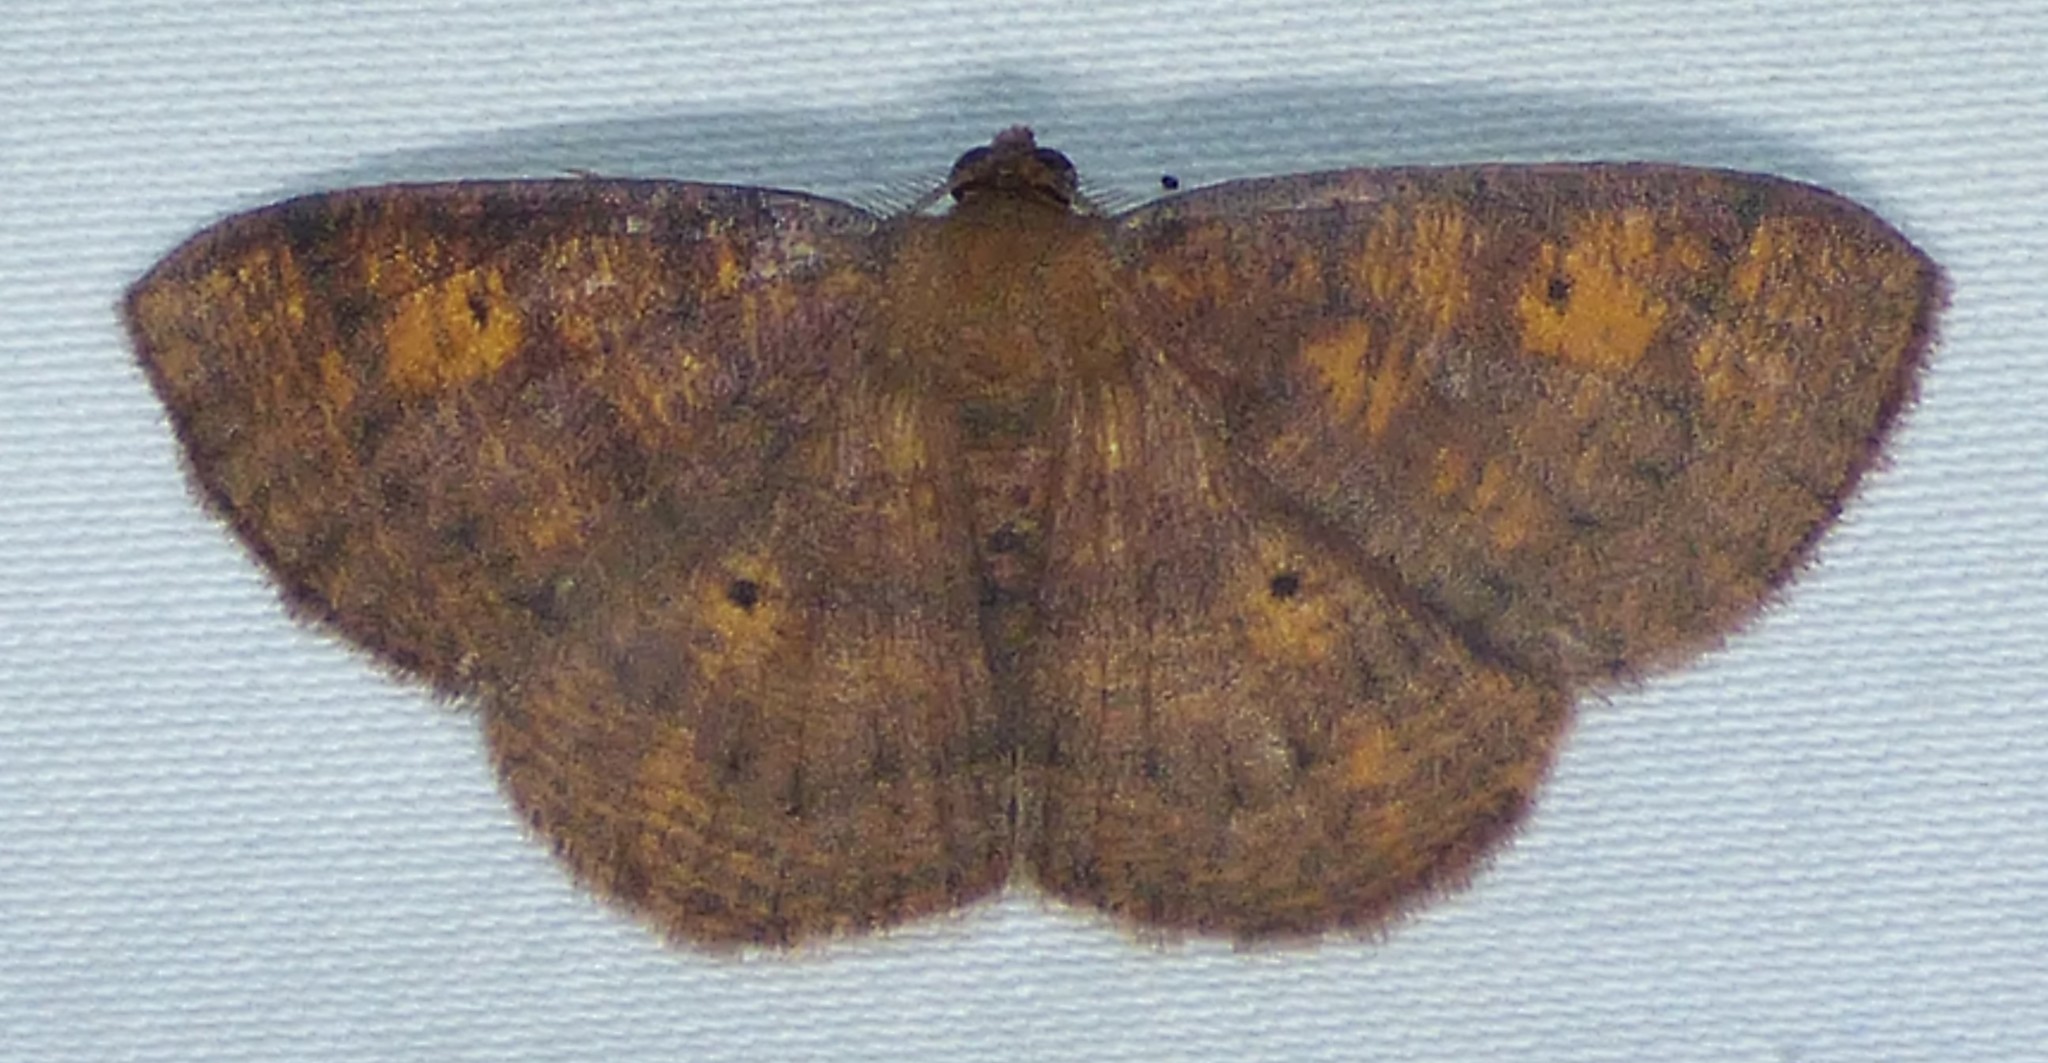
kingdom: Animalia
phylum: Arthropoda
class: Insecta
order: Lepidoptera
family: Geometridae
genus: Ilexia
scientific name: Ilexia intractata
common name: Black-dotted ruddy moth
